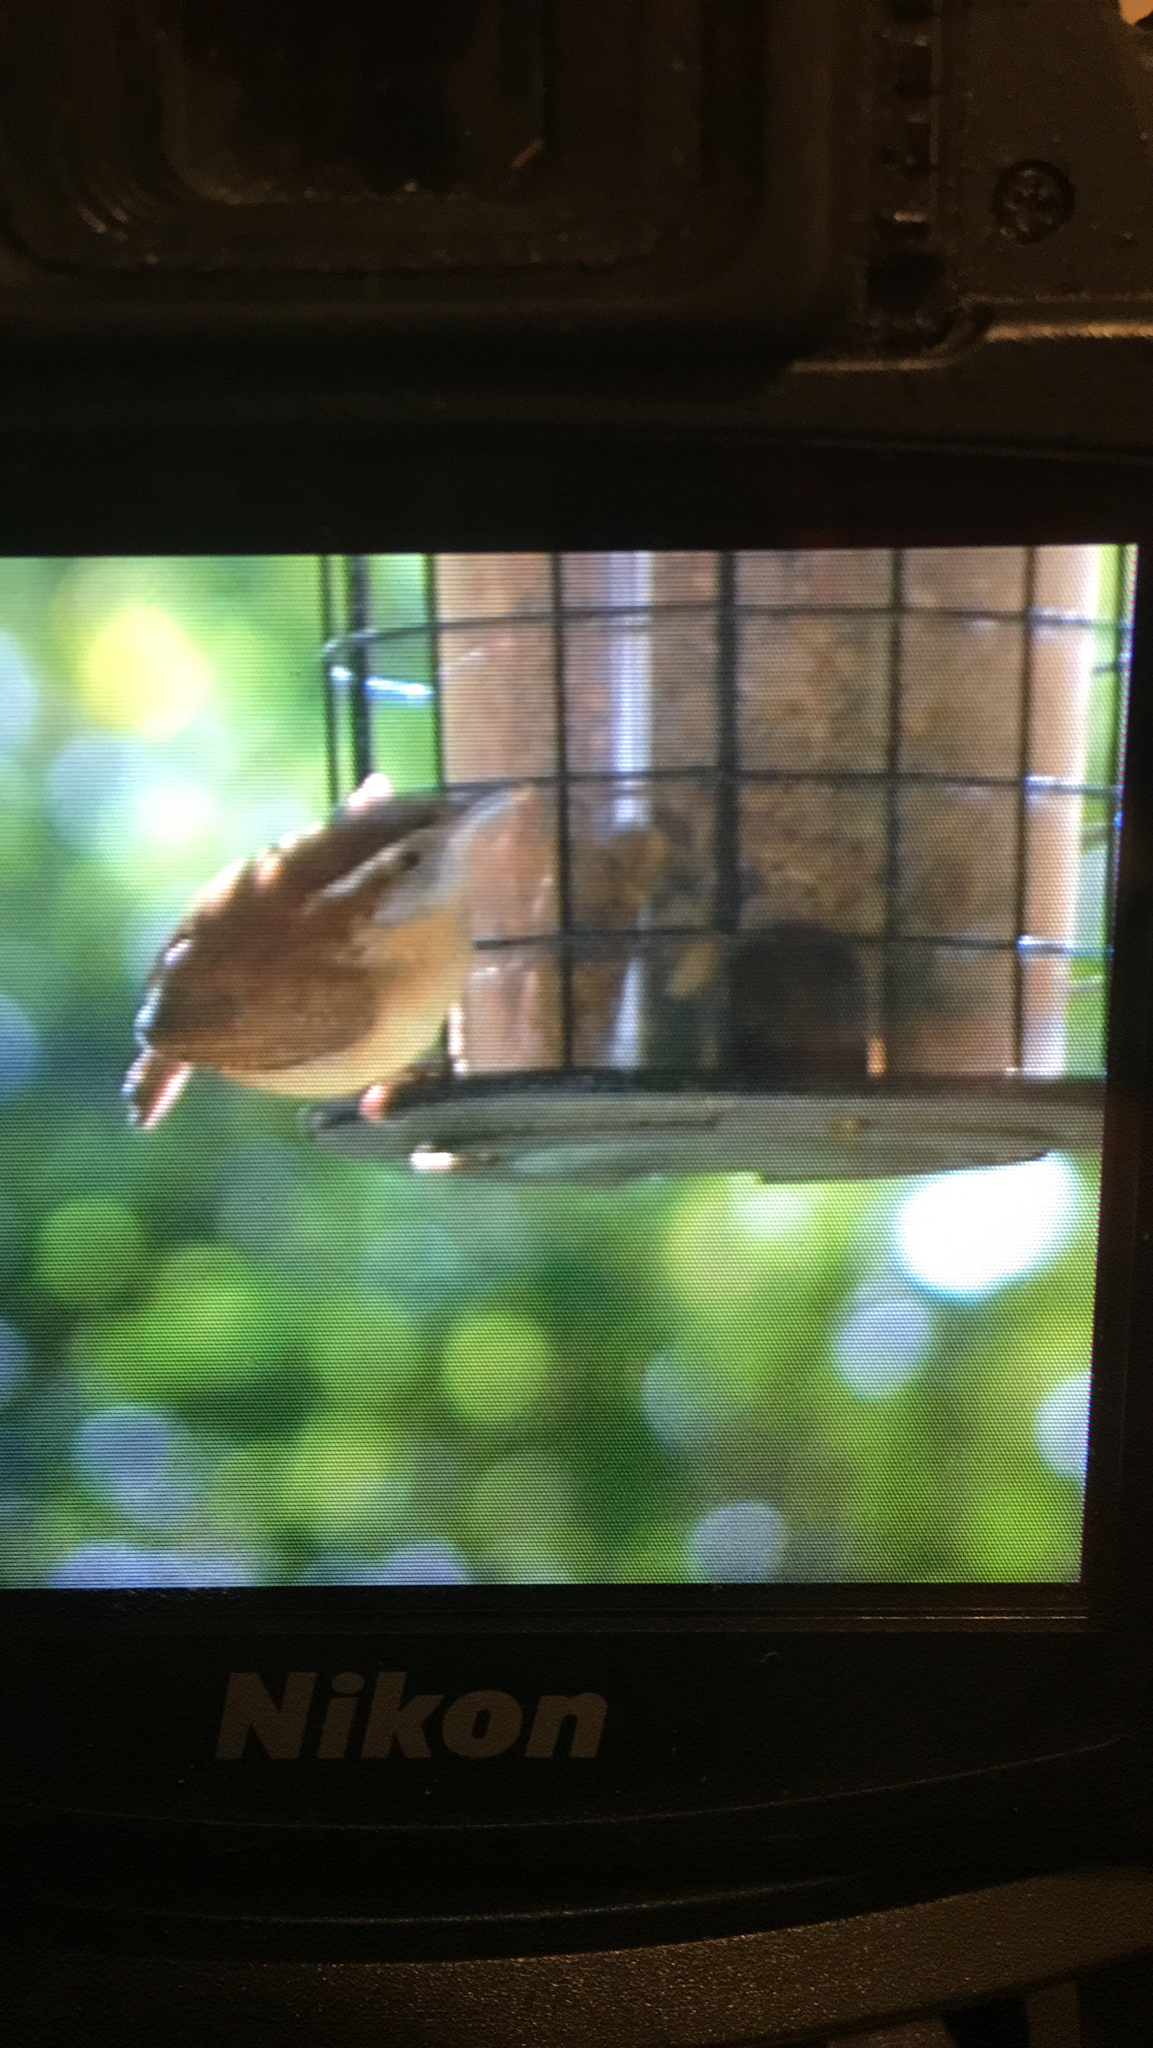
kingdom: Animalia
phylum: Chordata
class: Aves
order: Passeriformes
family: Troglodytidae
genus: Thryothorus
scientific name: Thryothorus ludovicianus
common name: Carolina wren
